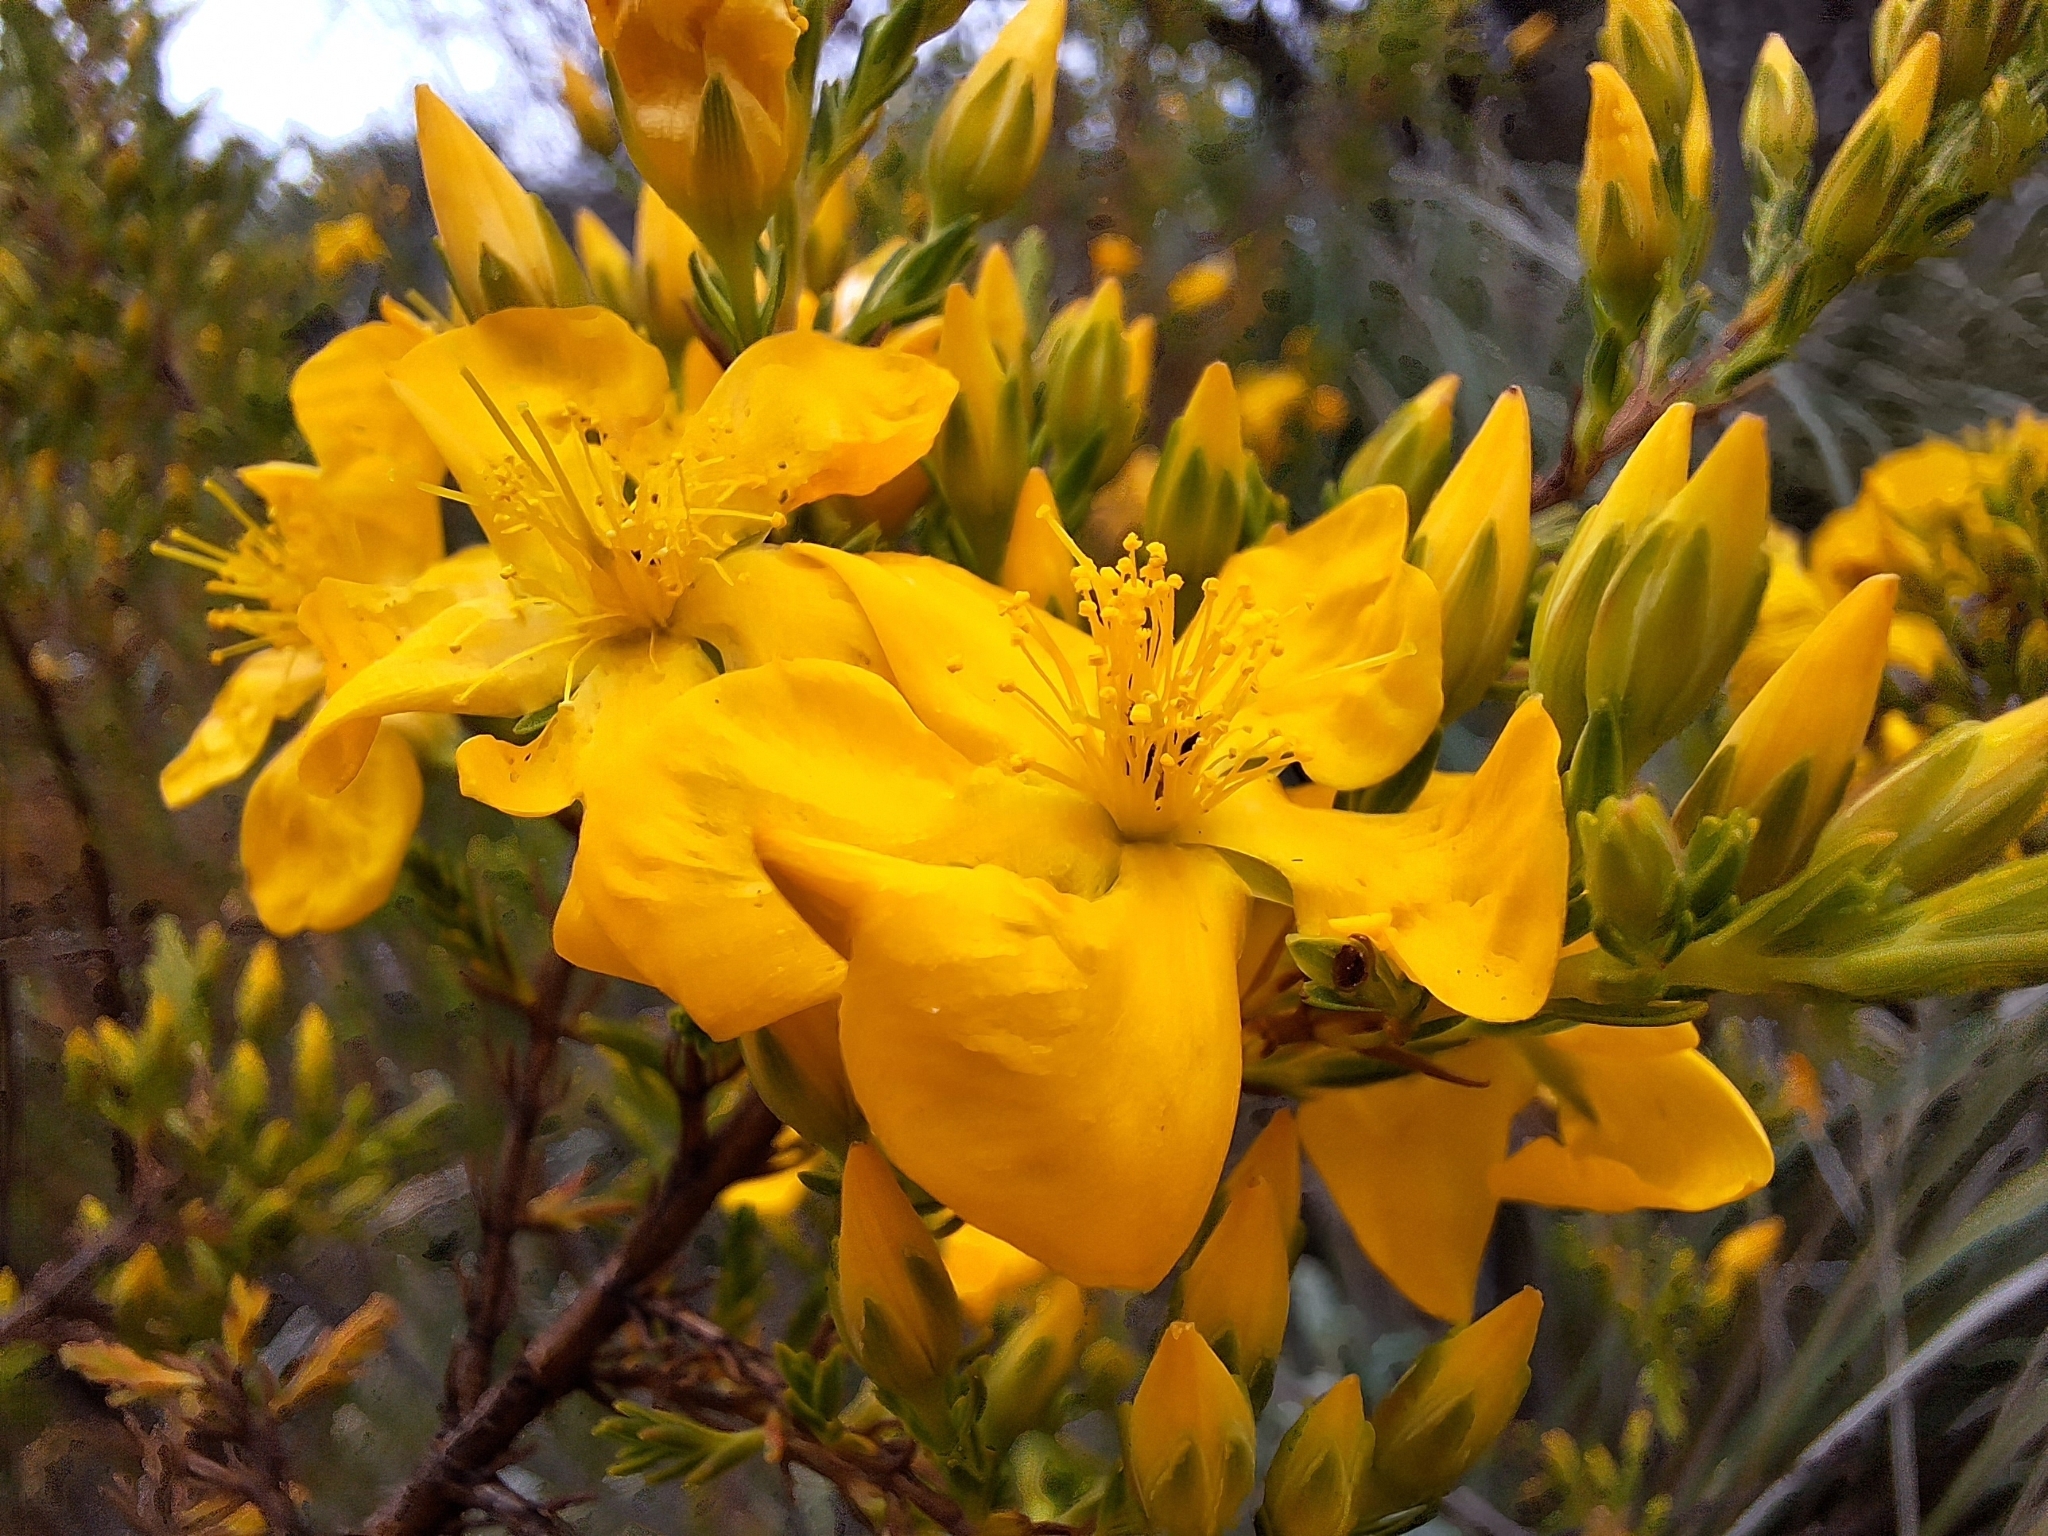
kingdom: Plantae
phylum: Tracheophyta
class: Magnoliopsida
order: Malpighiales
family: Hypericaceae
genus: Hypericum
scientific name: Hypericum laricifolium
